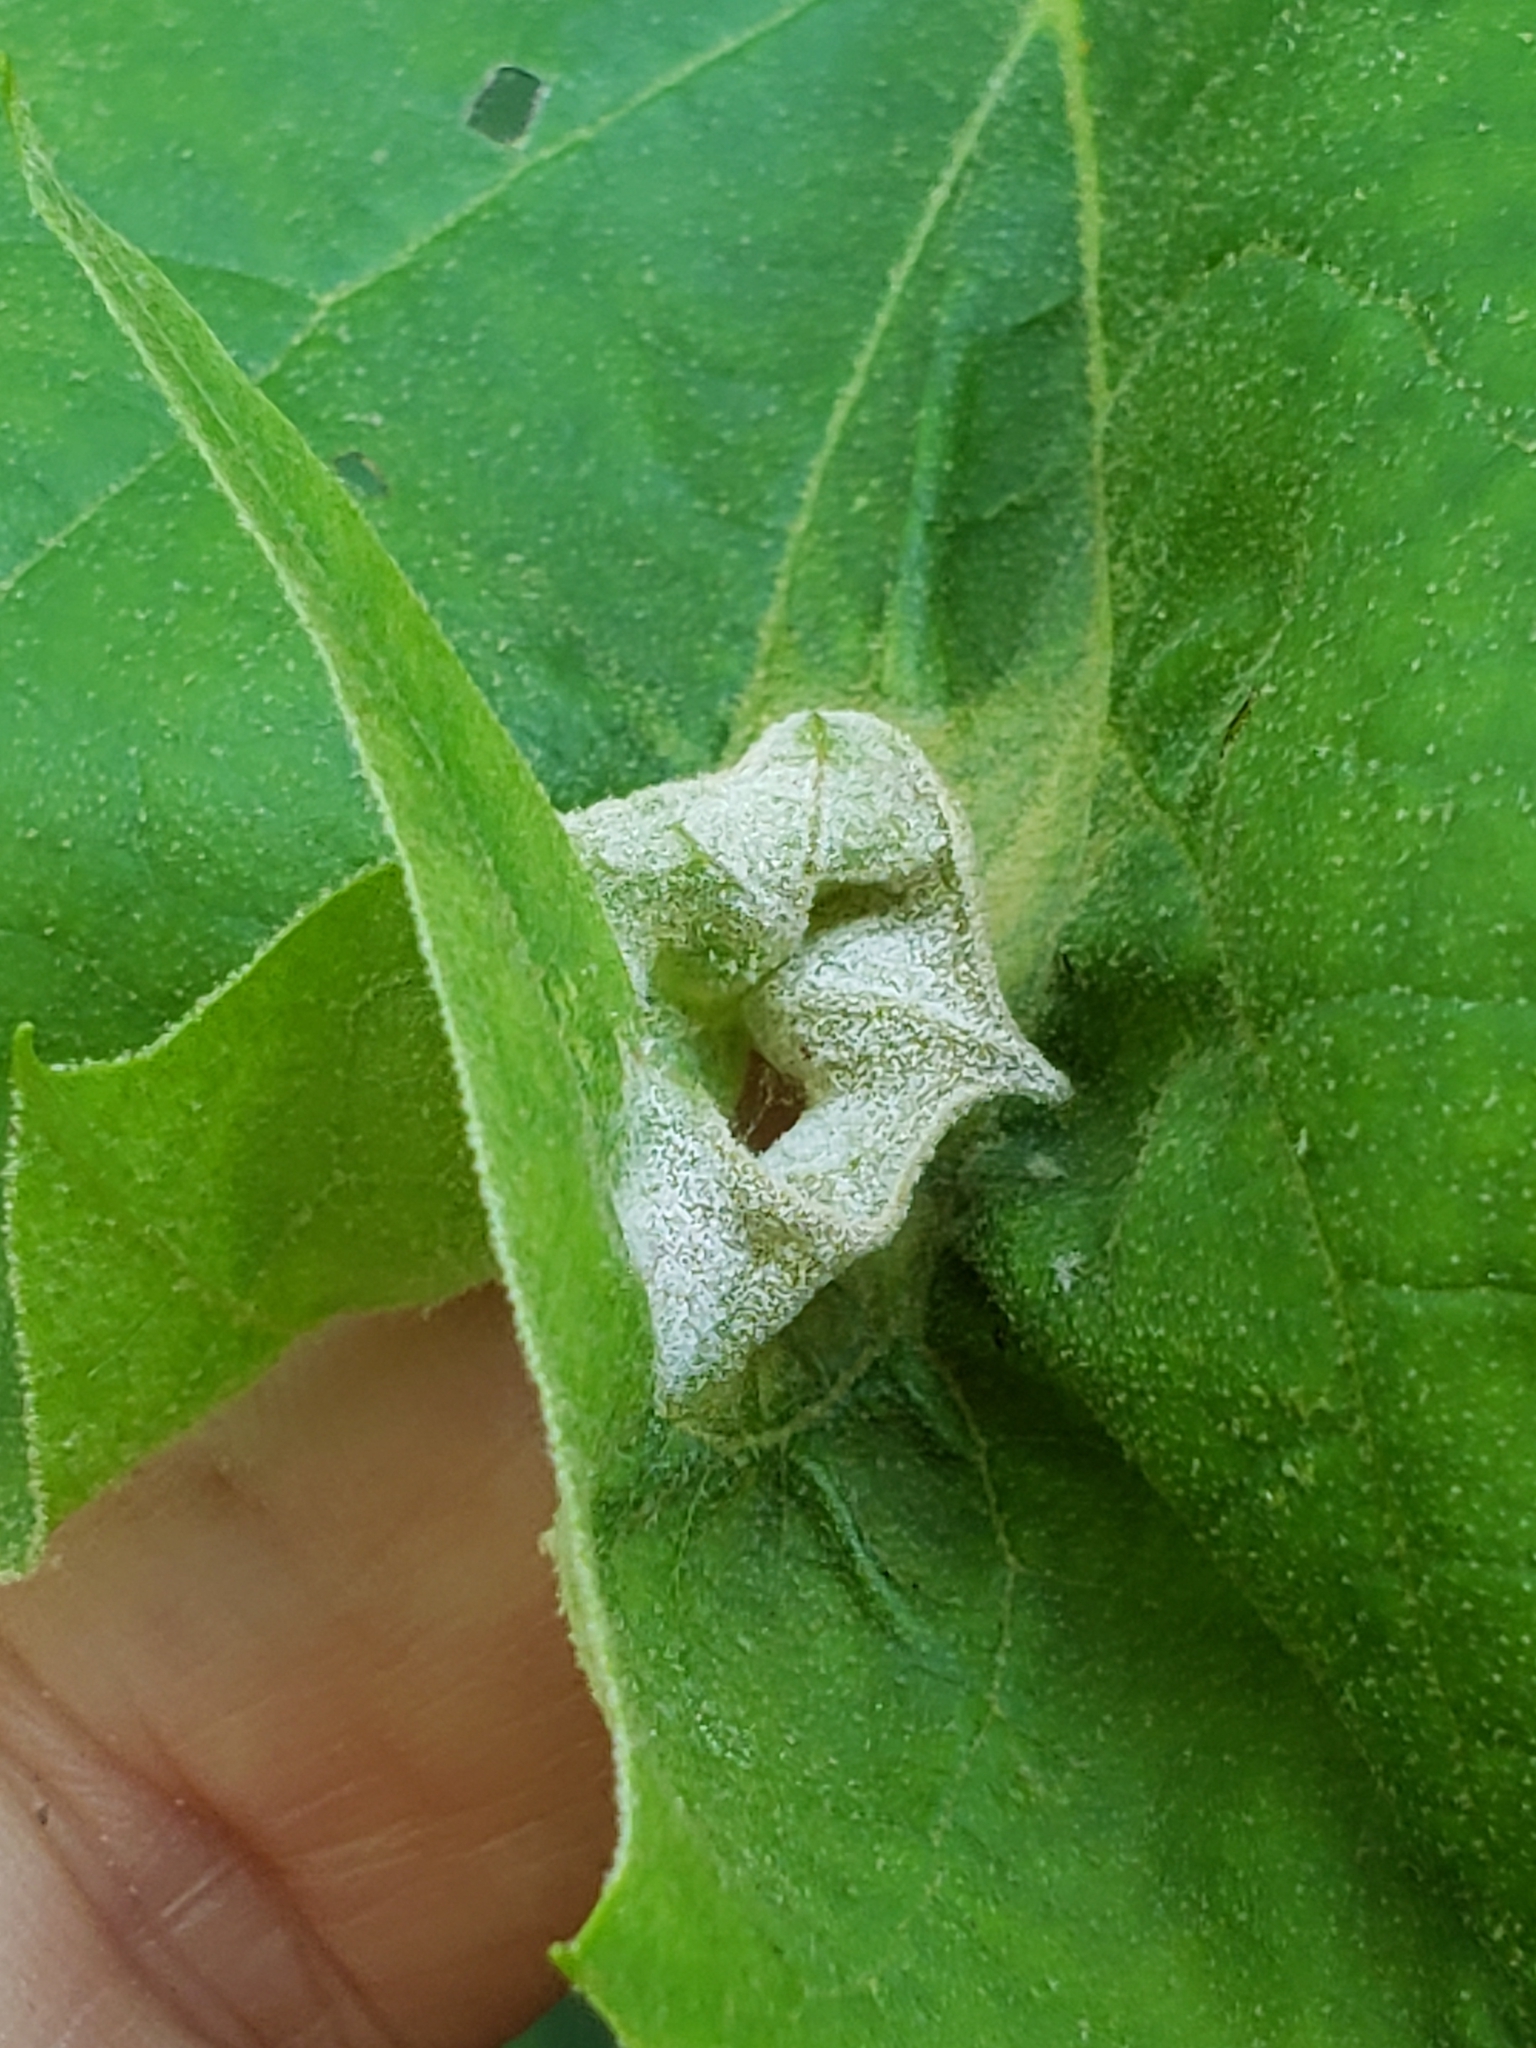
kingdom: Fungi
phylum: Ascomycota
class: Leotiomycetes
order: Helotiales
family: Erysiphaceae
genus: Erysiphe
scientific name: Erysiphe platani
